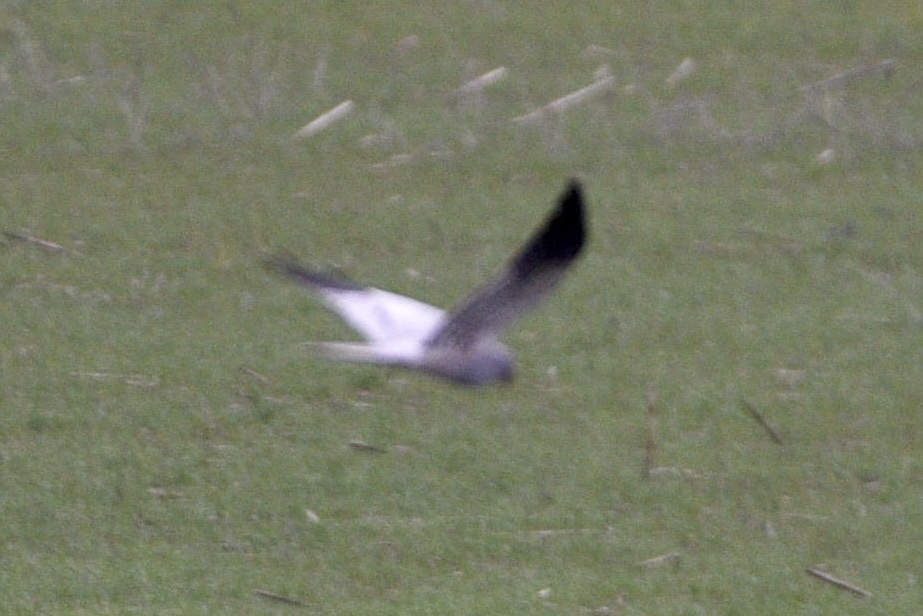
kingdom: Animalia
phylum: Chordata
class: Aves
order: Accipitriformes
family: Accipitridae
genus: Circus
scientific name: Circus pygargus
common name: Montagu's harrier
